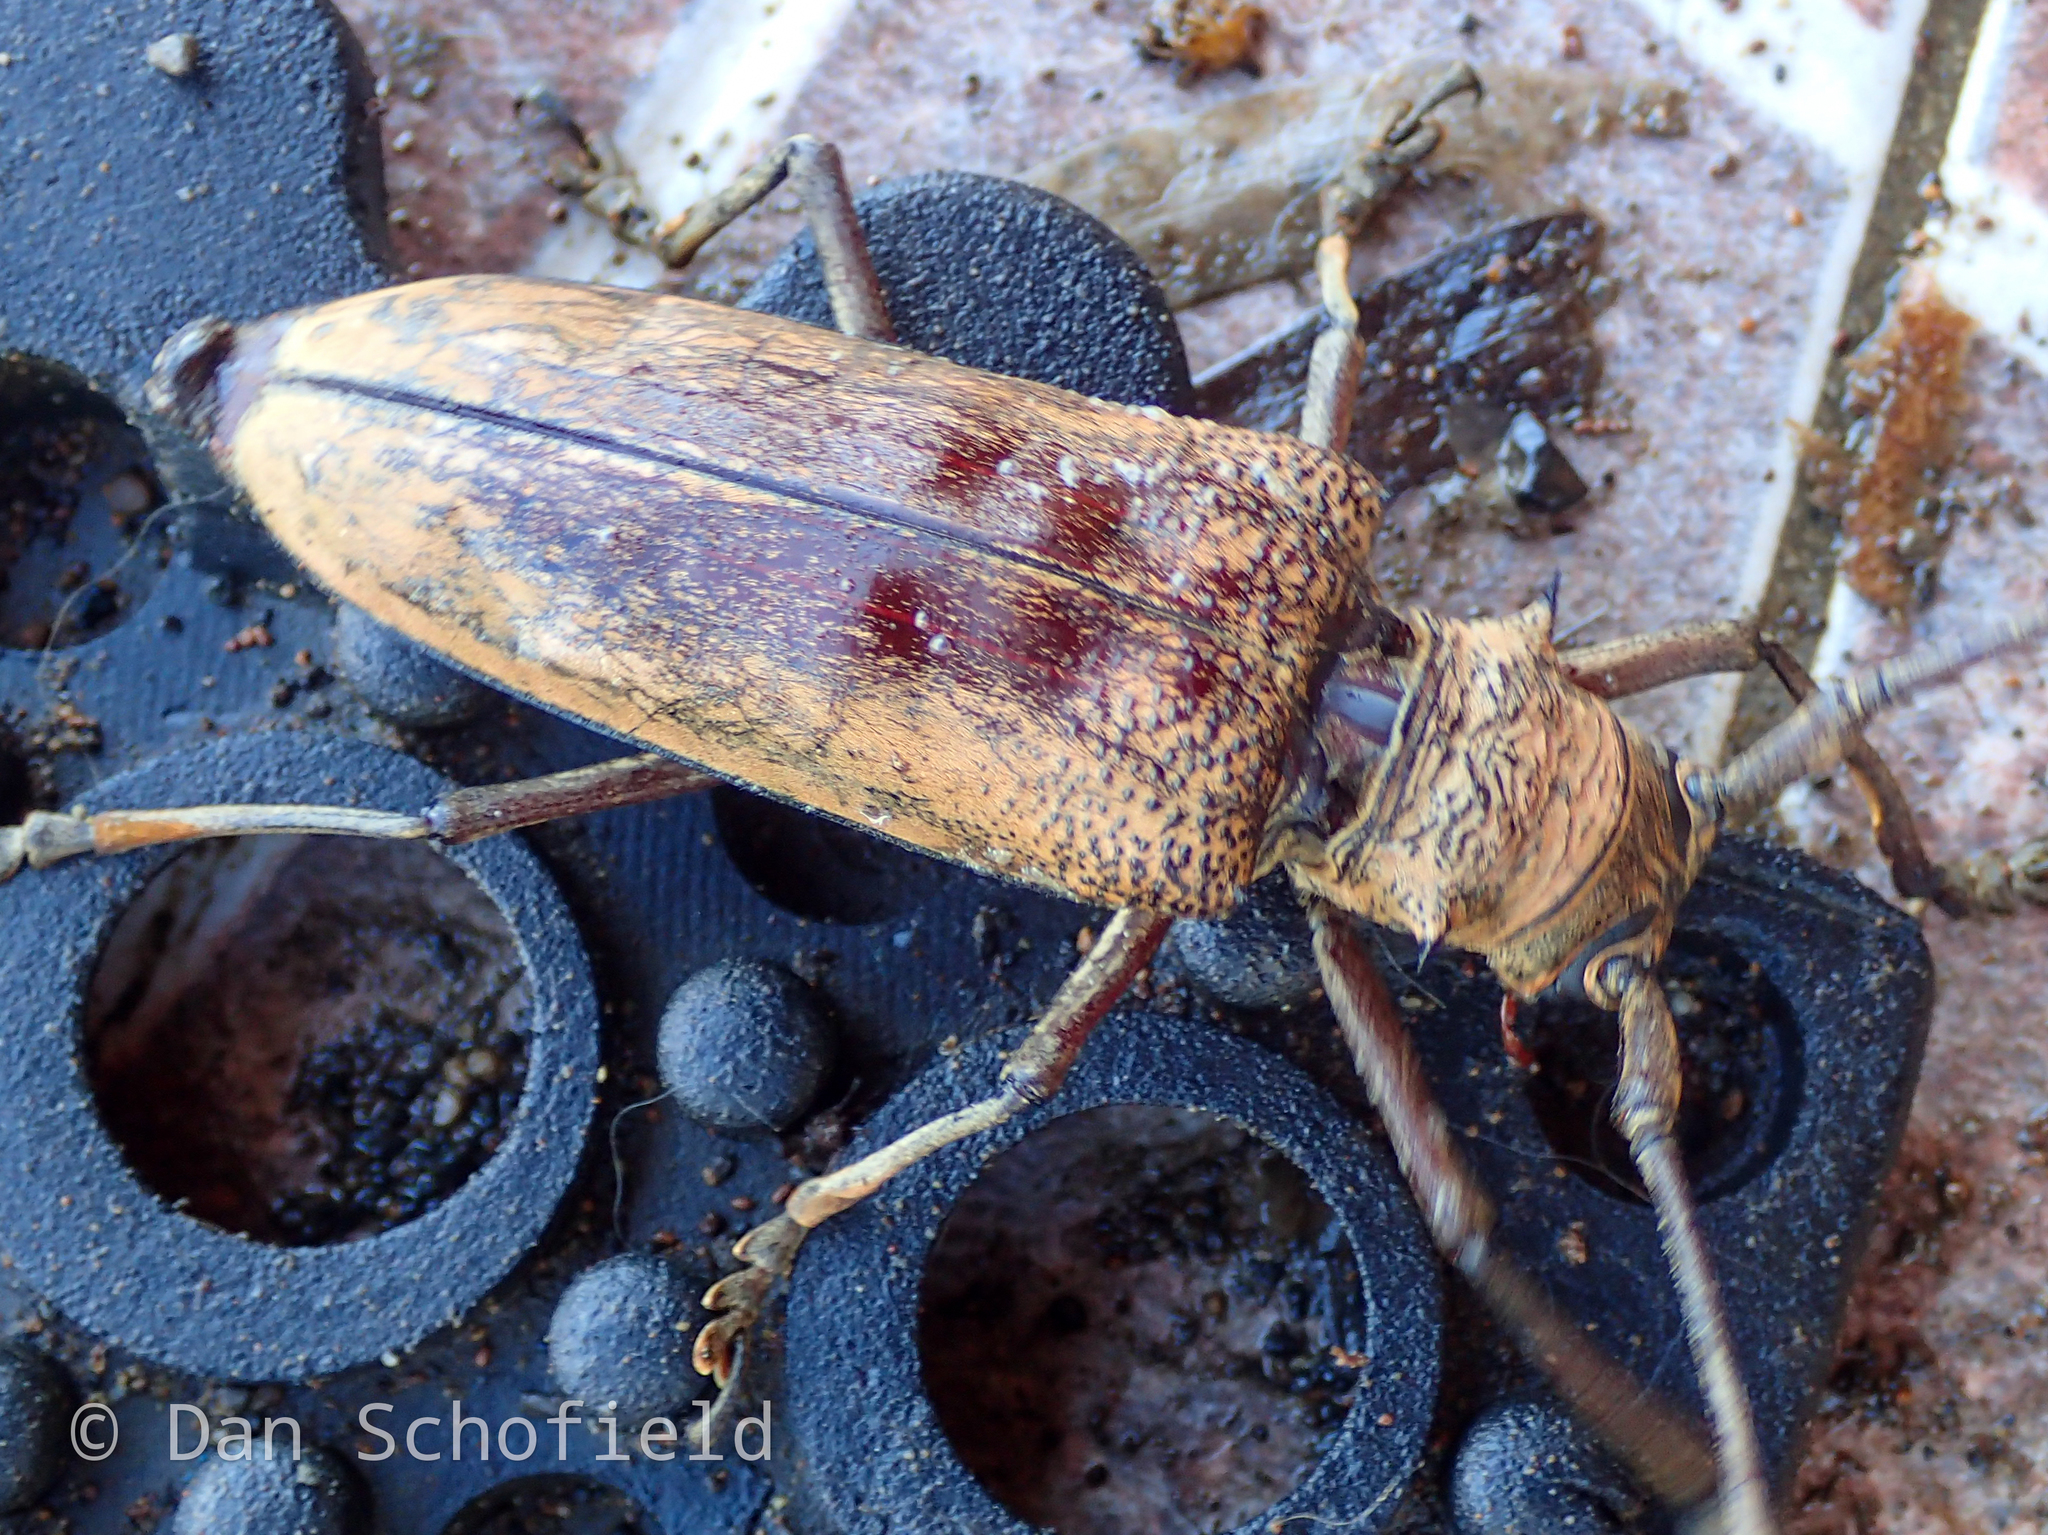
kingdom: Animalia
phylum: Arthropoda
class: Insecta
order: Coleoptera
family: Cerambycidae
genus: Abatocera
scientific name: Abatocera leonina
